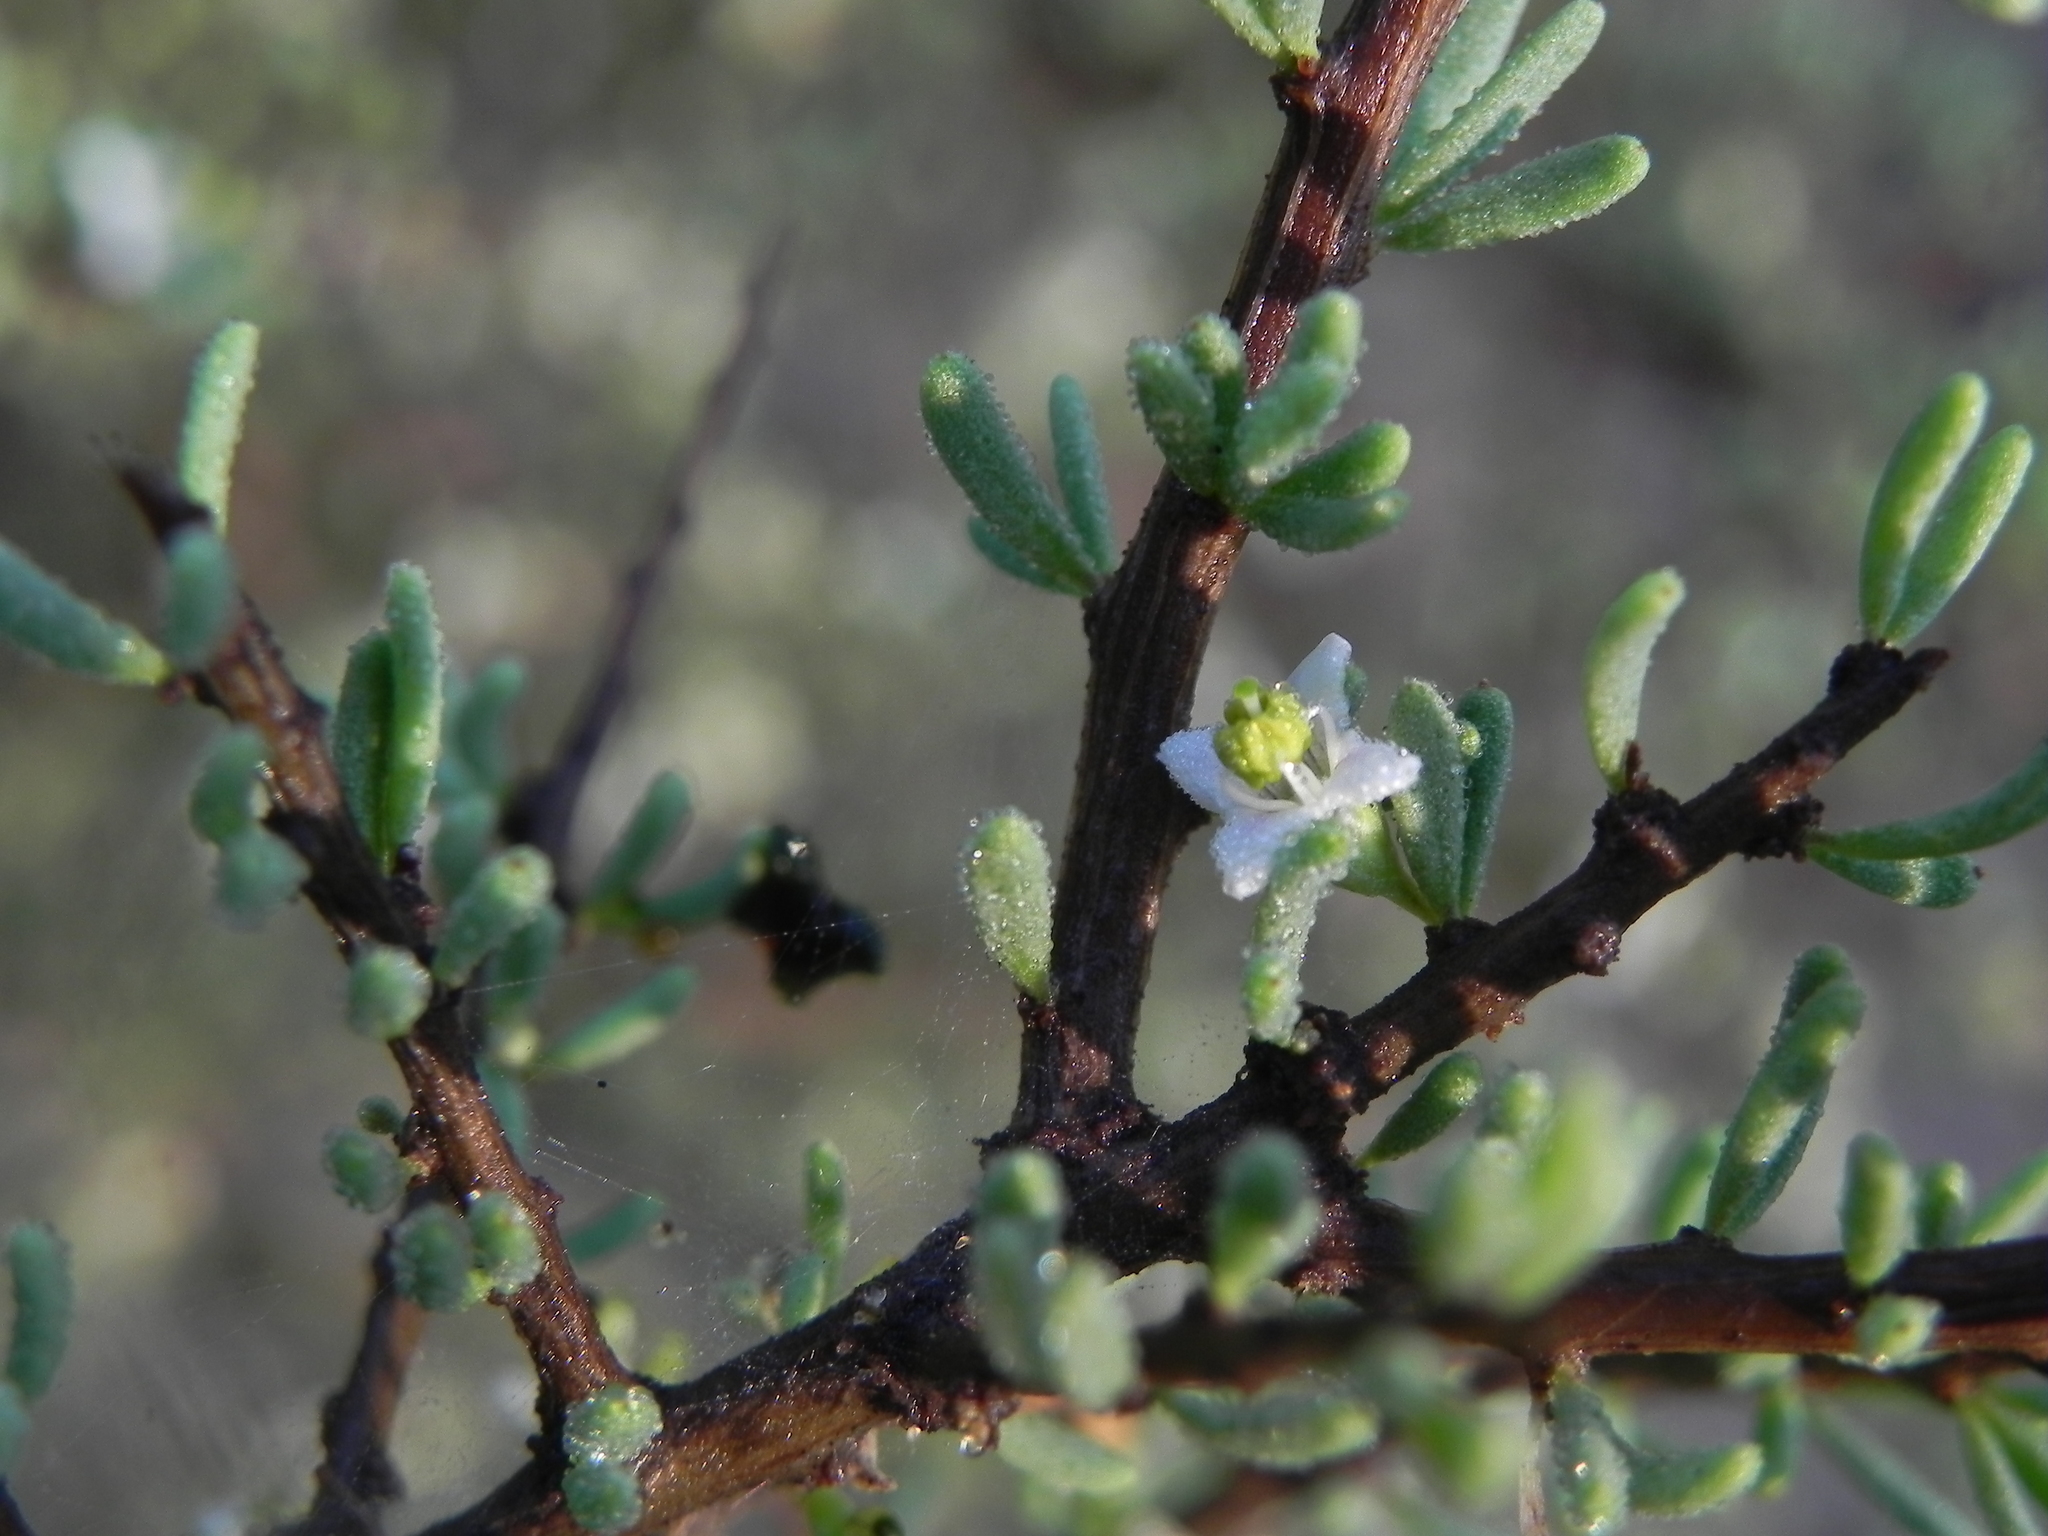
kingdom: Plantae
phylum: Tracheophyta
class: Magnoliopsida
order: Solanales
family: Solanaceae
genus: Lycium
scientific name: Lycium californicum
